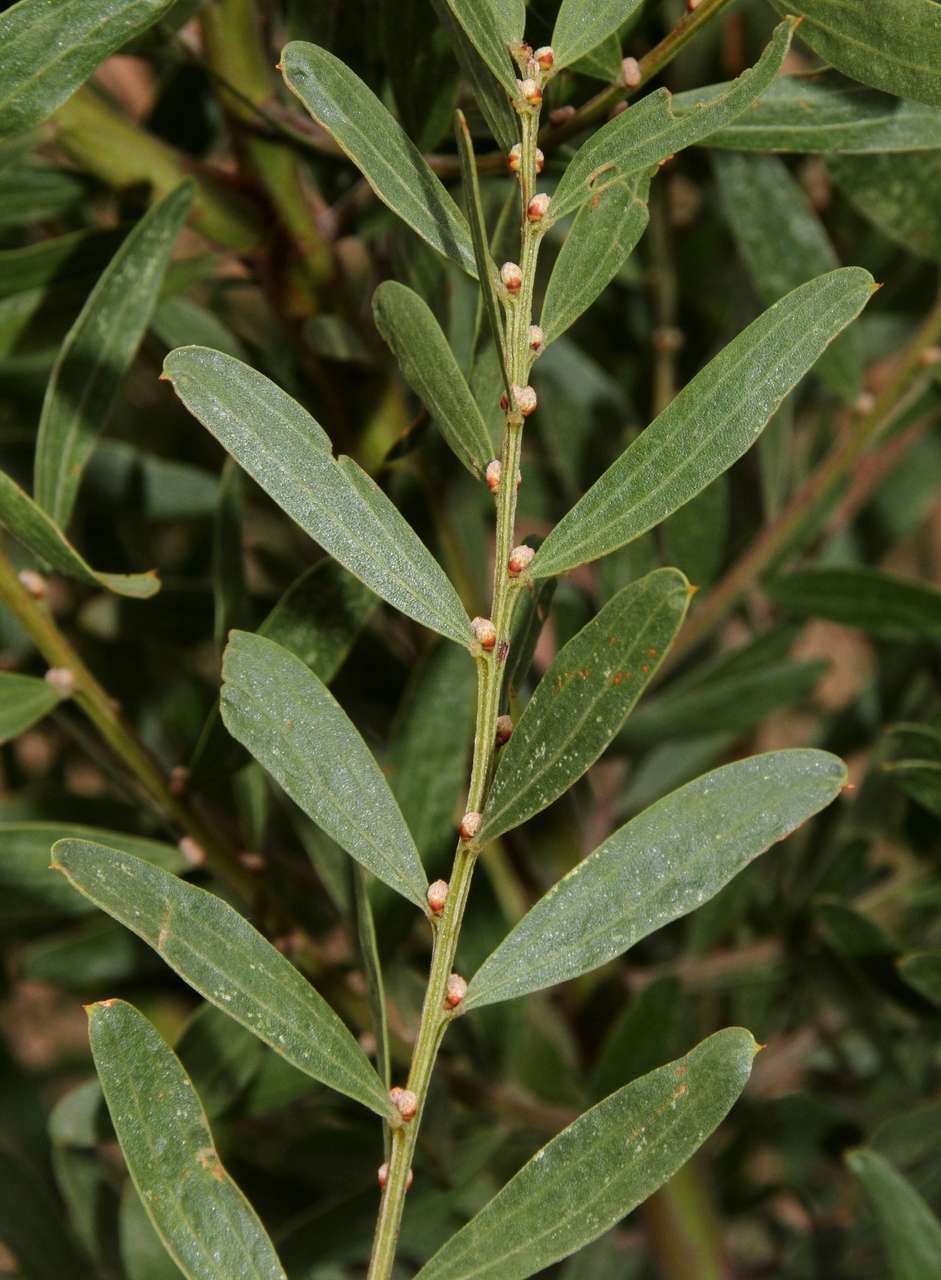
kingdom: Plantae
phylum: Tracheophyta
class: Magnoliopsida
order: Fabales
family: Fabaceae
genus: Acacia
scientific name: Acacia rostriformis
